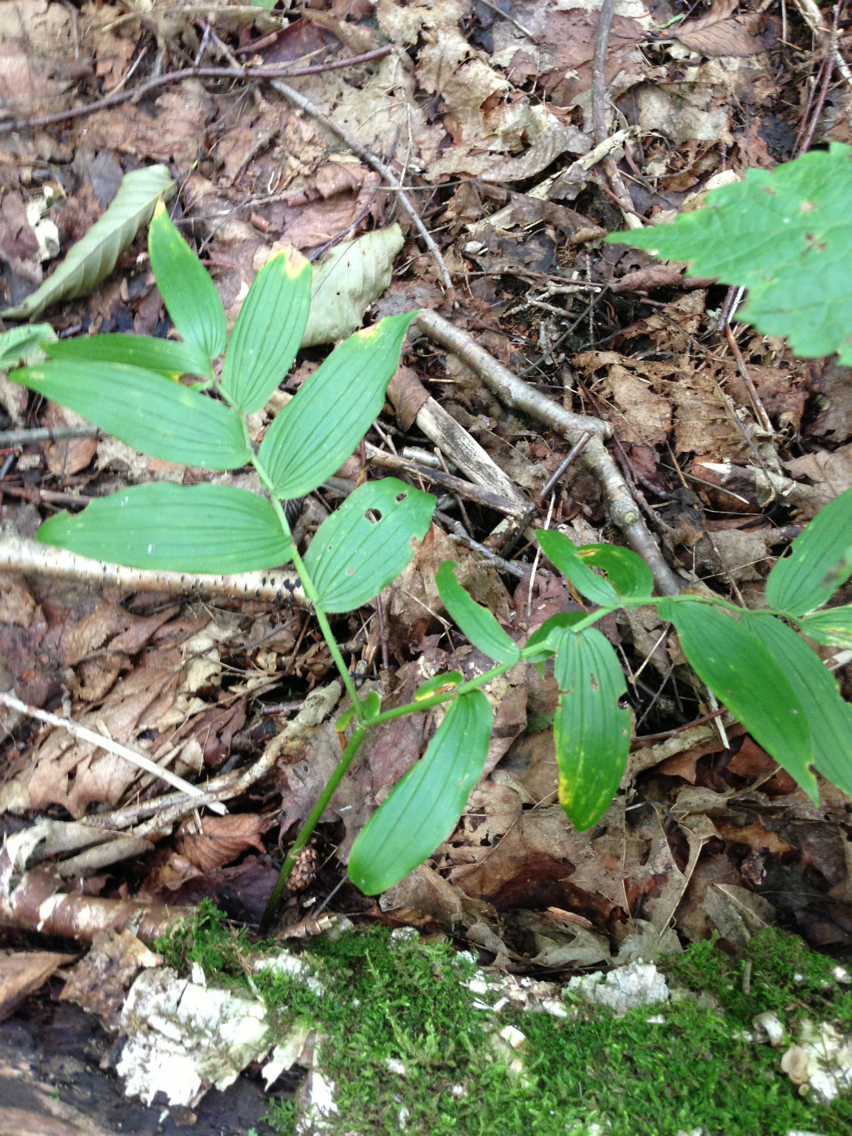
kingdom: Plantae
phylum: Tracheophyta
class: Liliopsida
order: Liliales
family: Liliaceae
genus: Streptopus
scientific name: Streptopus lanceolatus
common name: Rose mandarin
